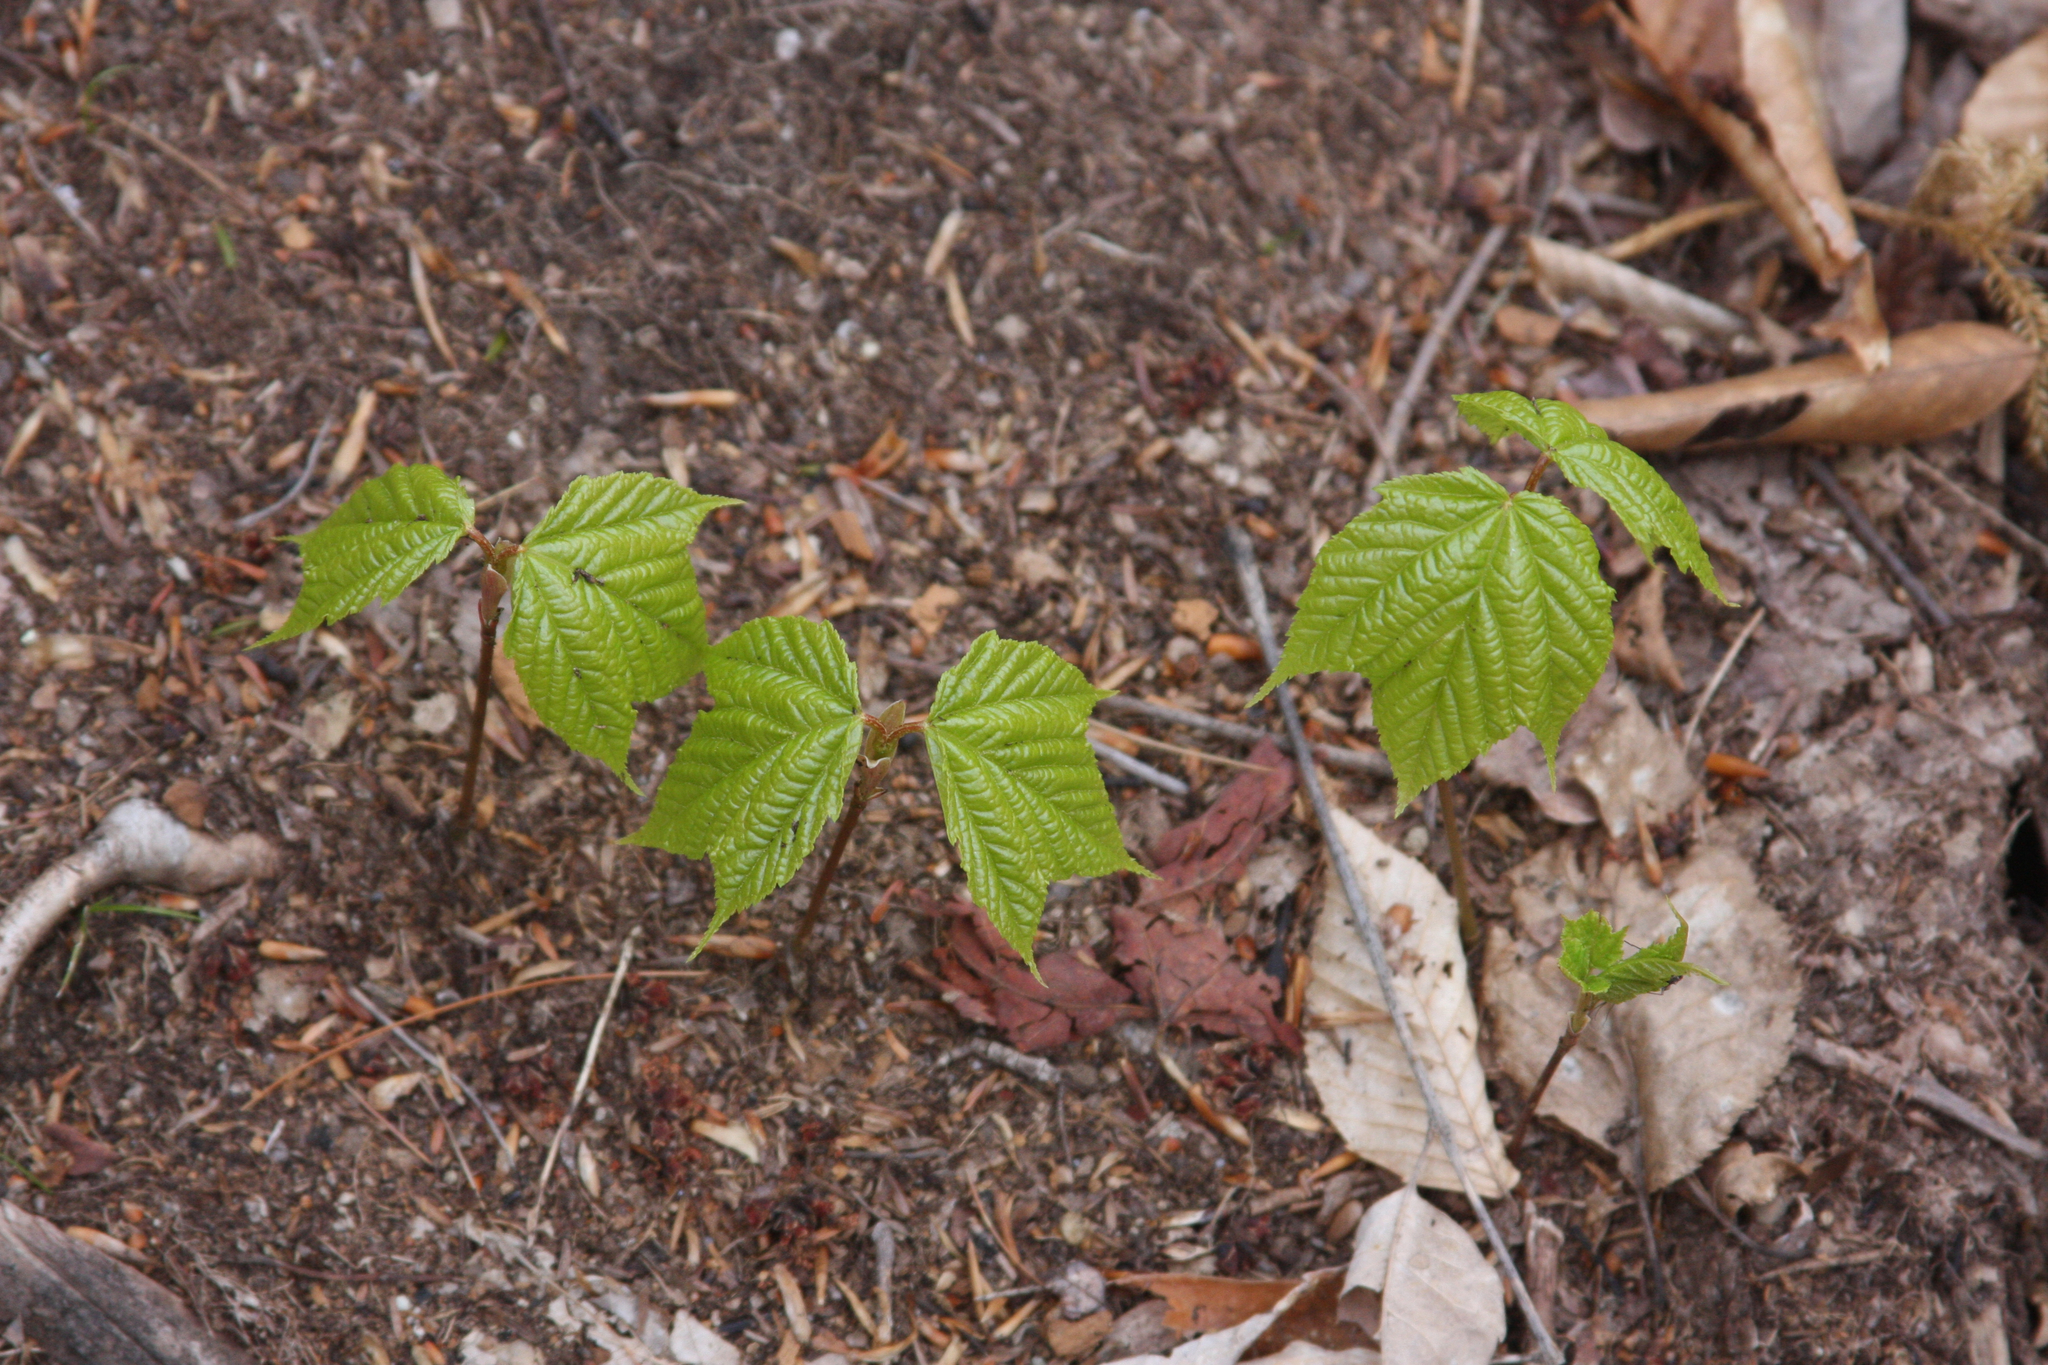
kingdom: Plantae
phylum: Tracheophyta
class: Magnoliopsida
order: Sapindales
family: Sapindaceae
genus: Acer
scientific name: Acer pensylvanicum
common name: Moosewood
